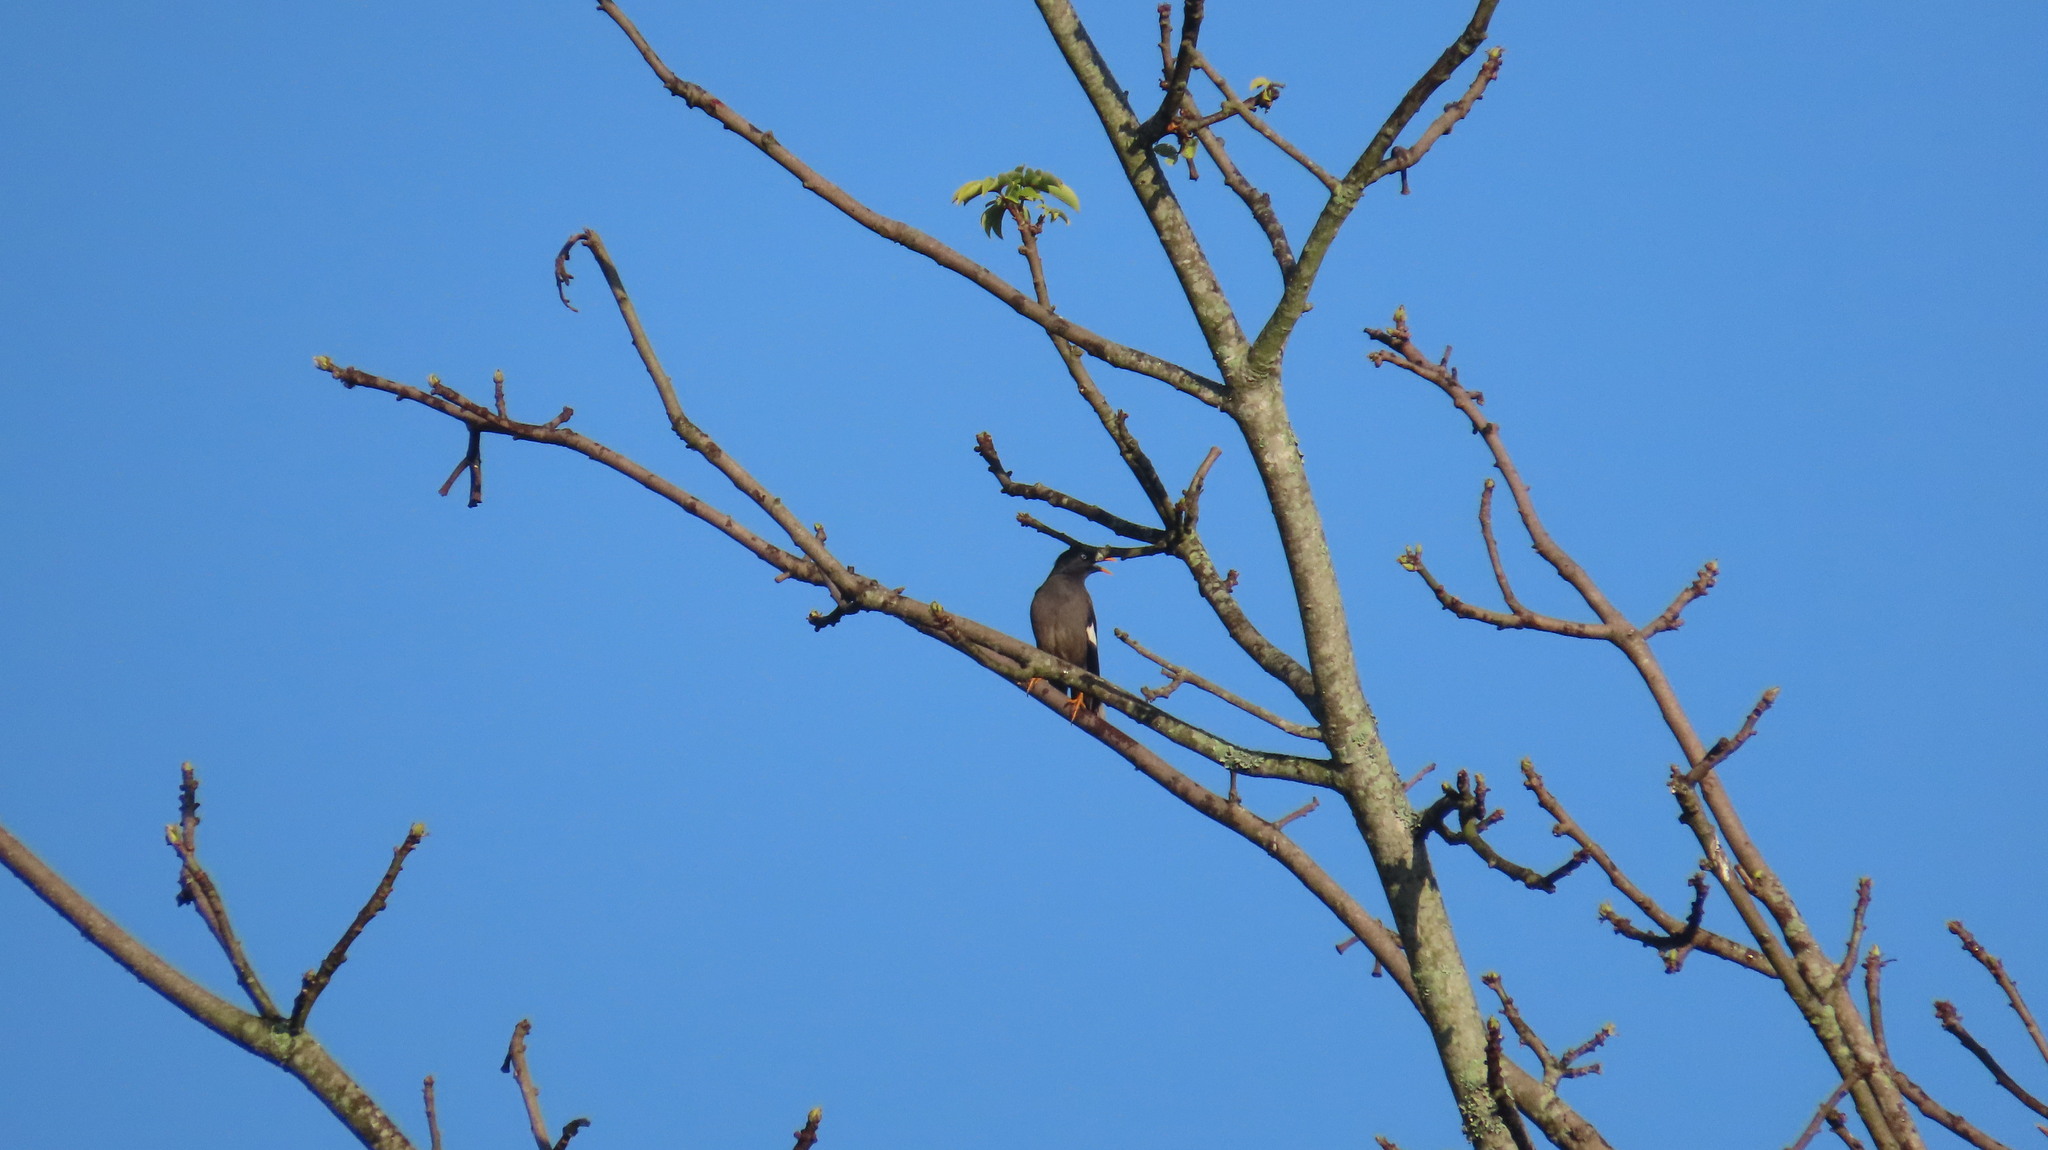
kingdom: Animalia
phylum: Chordata
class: Aves
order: Passeriformes
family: Sturnidae
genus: Acridotheres
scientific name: Acridotheres fuscus
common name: Jungle myna
